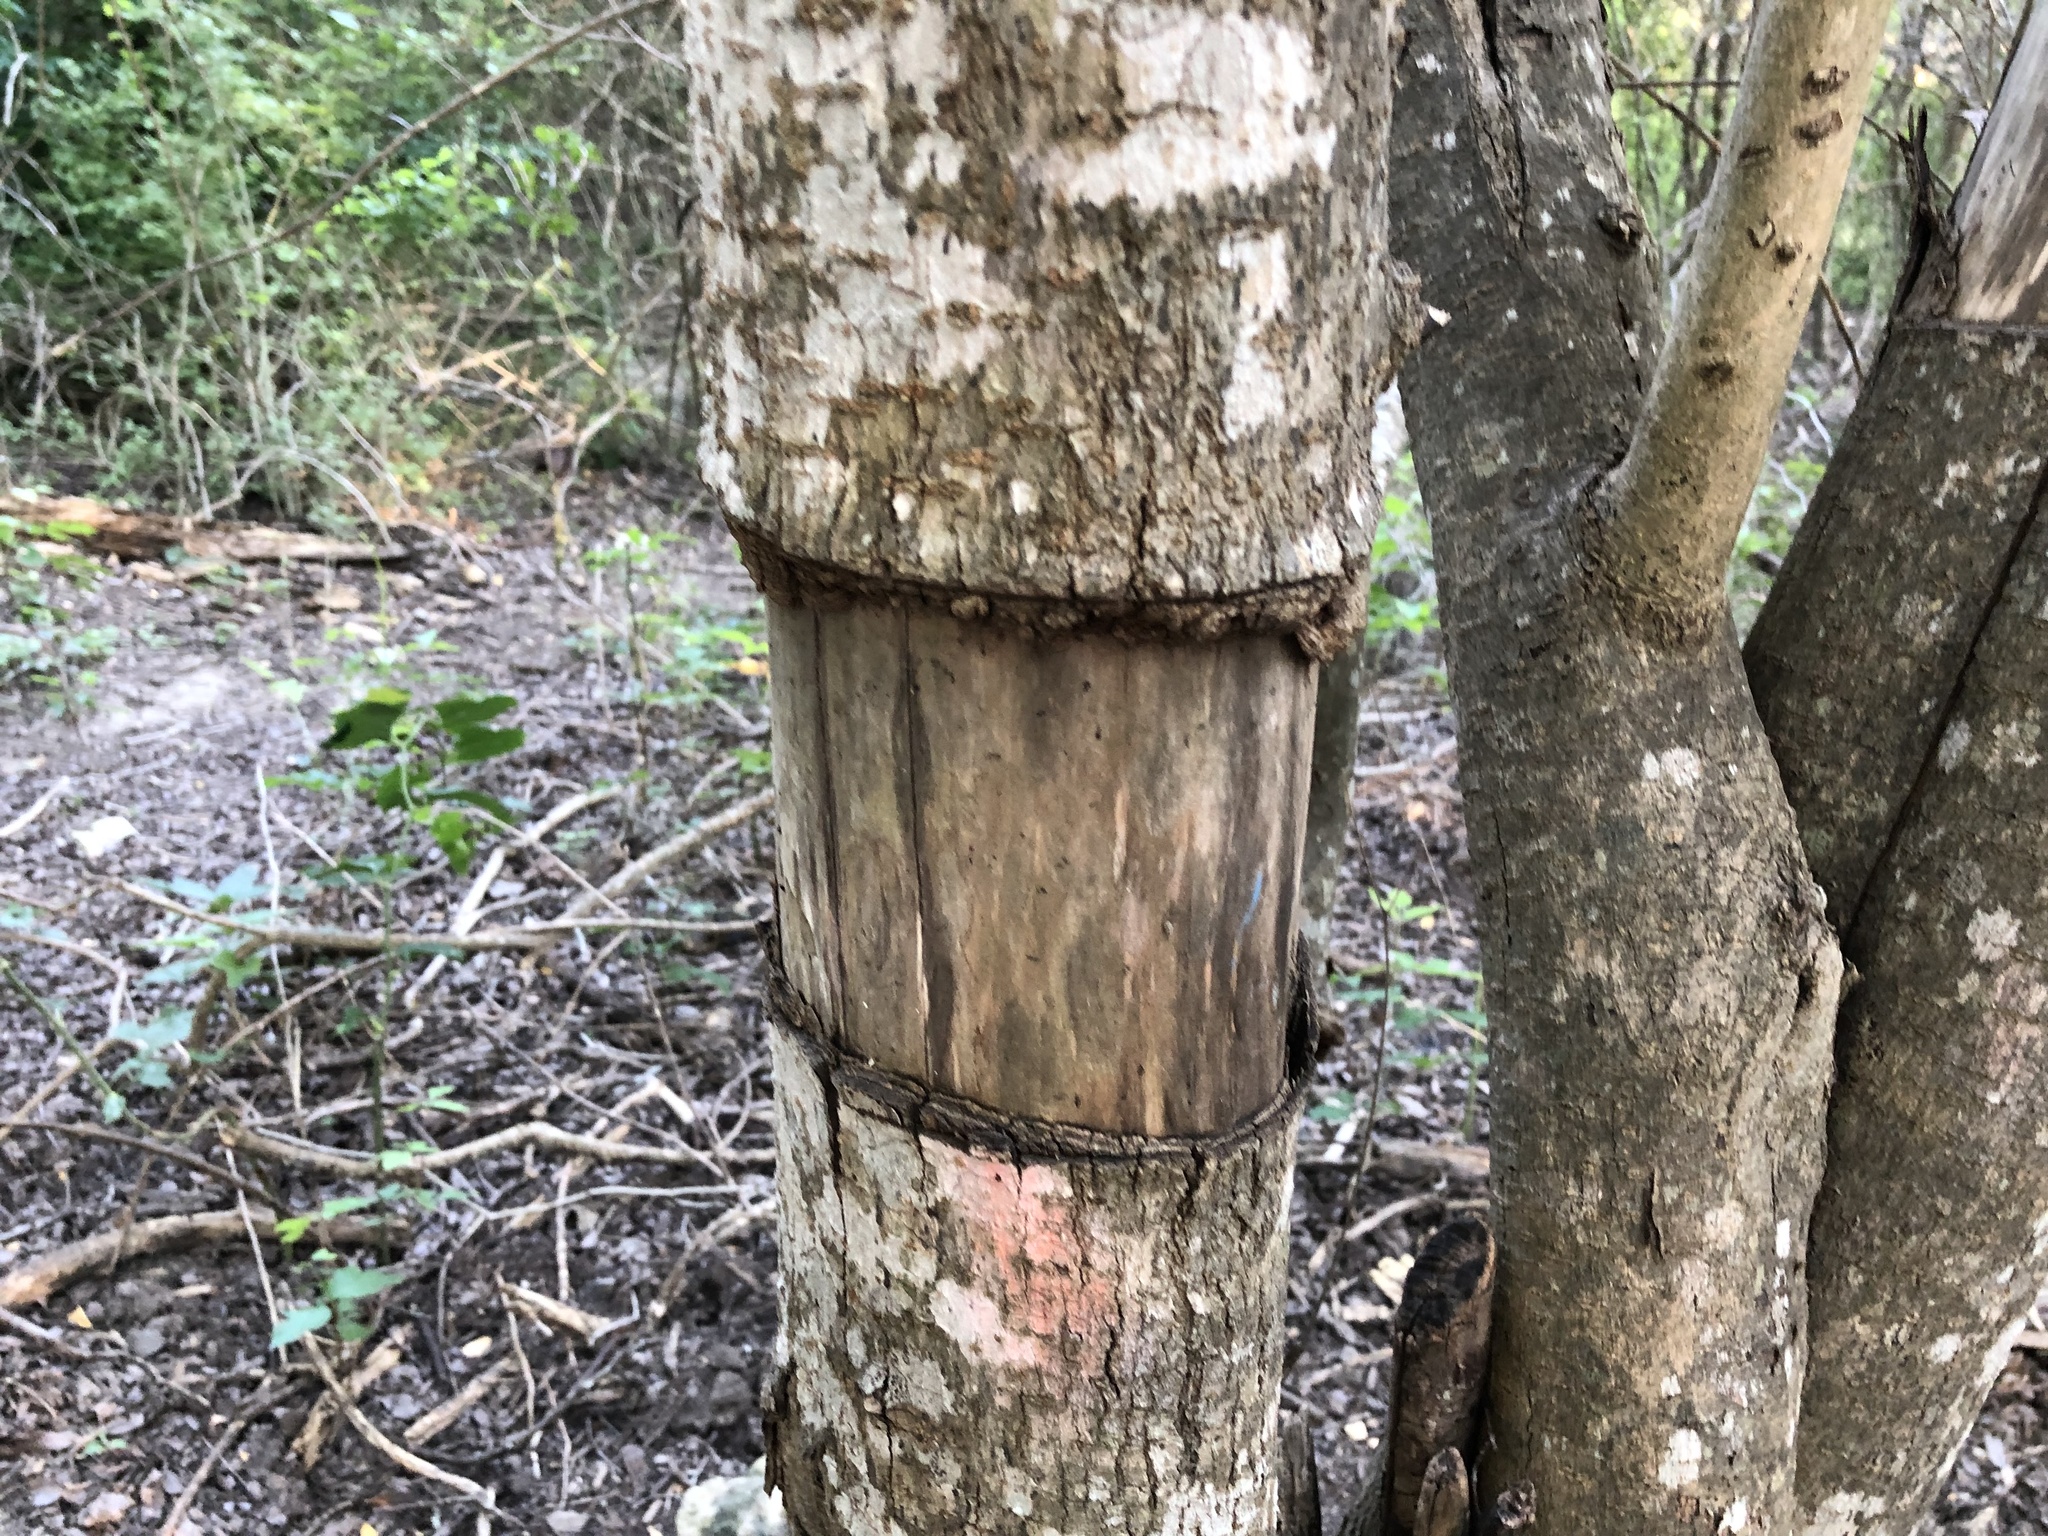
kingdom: Plantae
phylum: Tracheophyta
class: Magnoliopsida
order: Lamiales
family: Oleaceae
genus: Ligustrum
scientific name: Ligustrum lucidum
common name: Glossy privet
